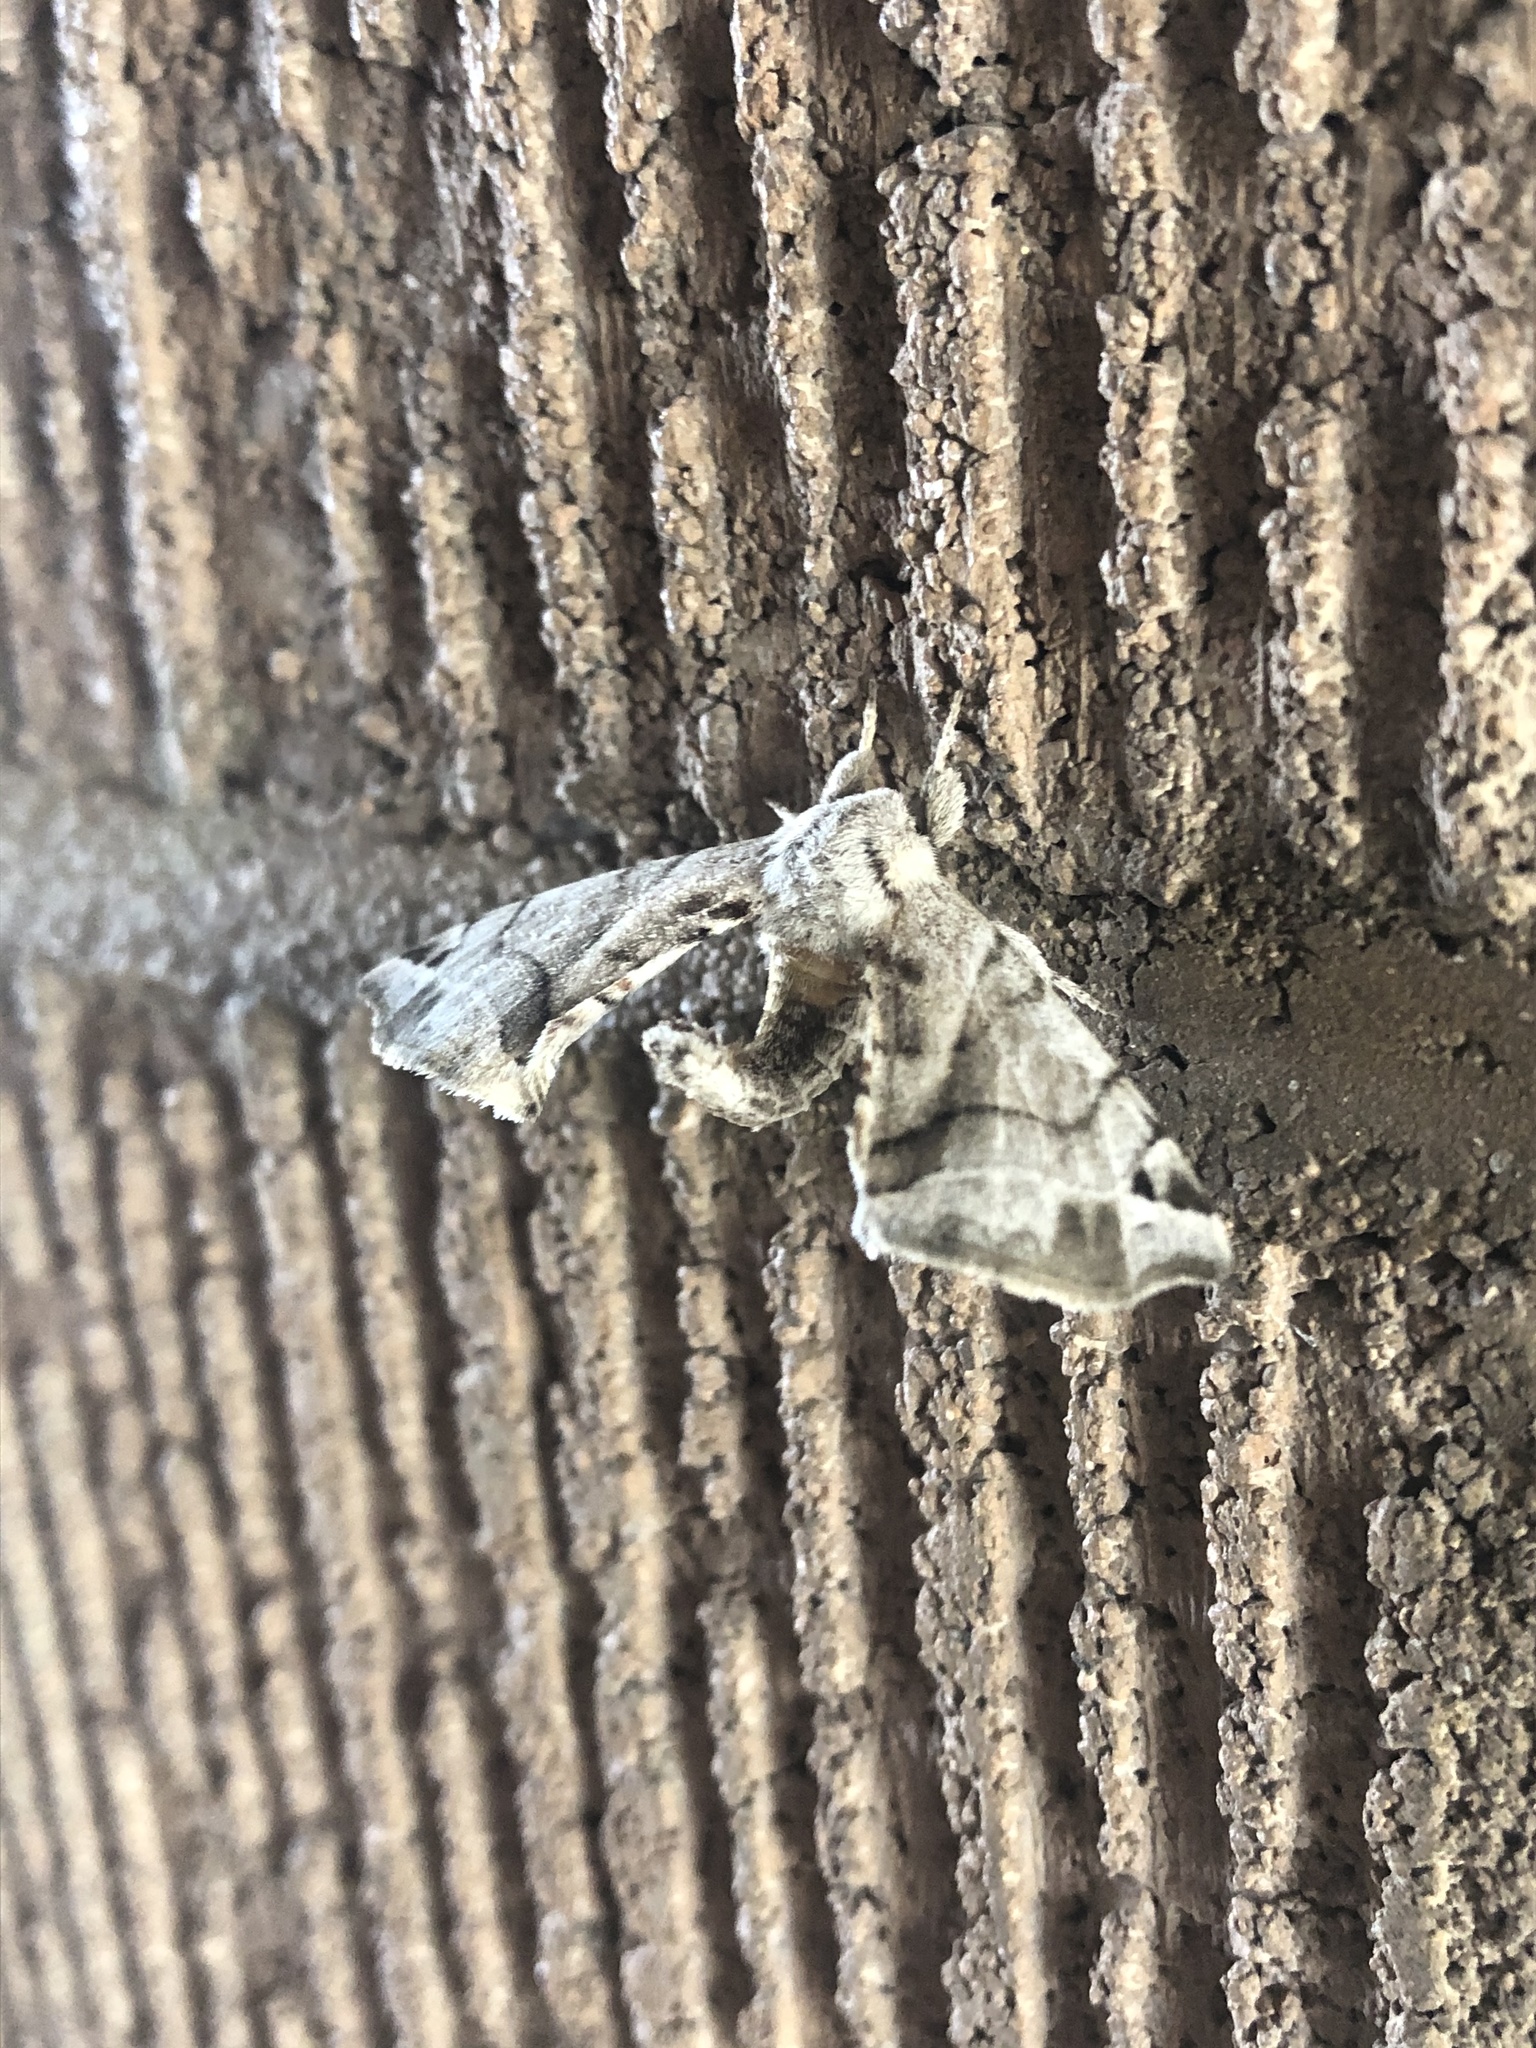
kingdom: Animalia
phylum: Arthropoda
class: Insecta
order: Lepidoptera
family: Apatelodidae
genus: Hygrochroa
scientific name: Hygrochroa Apatelodes pudefacta
